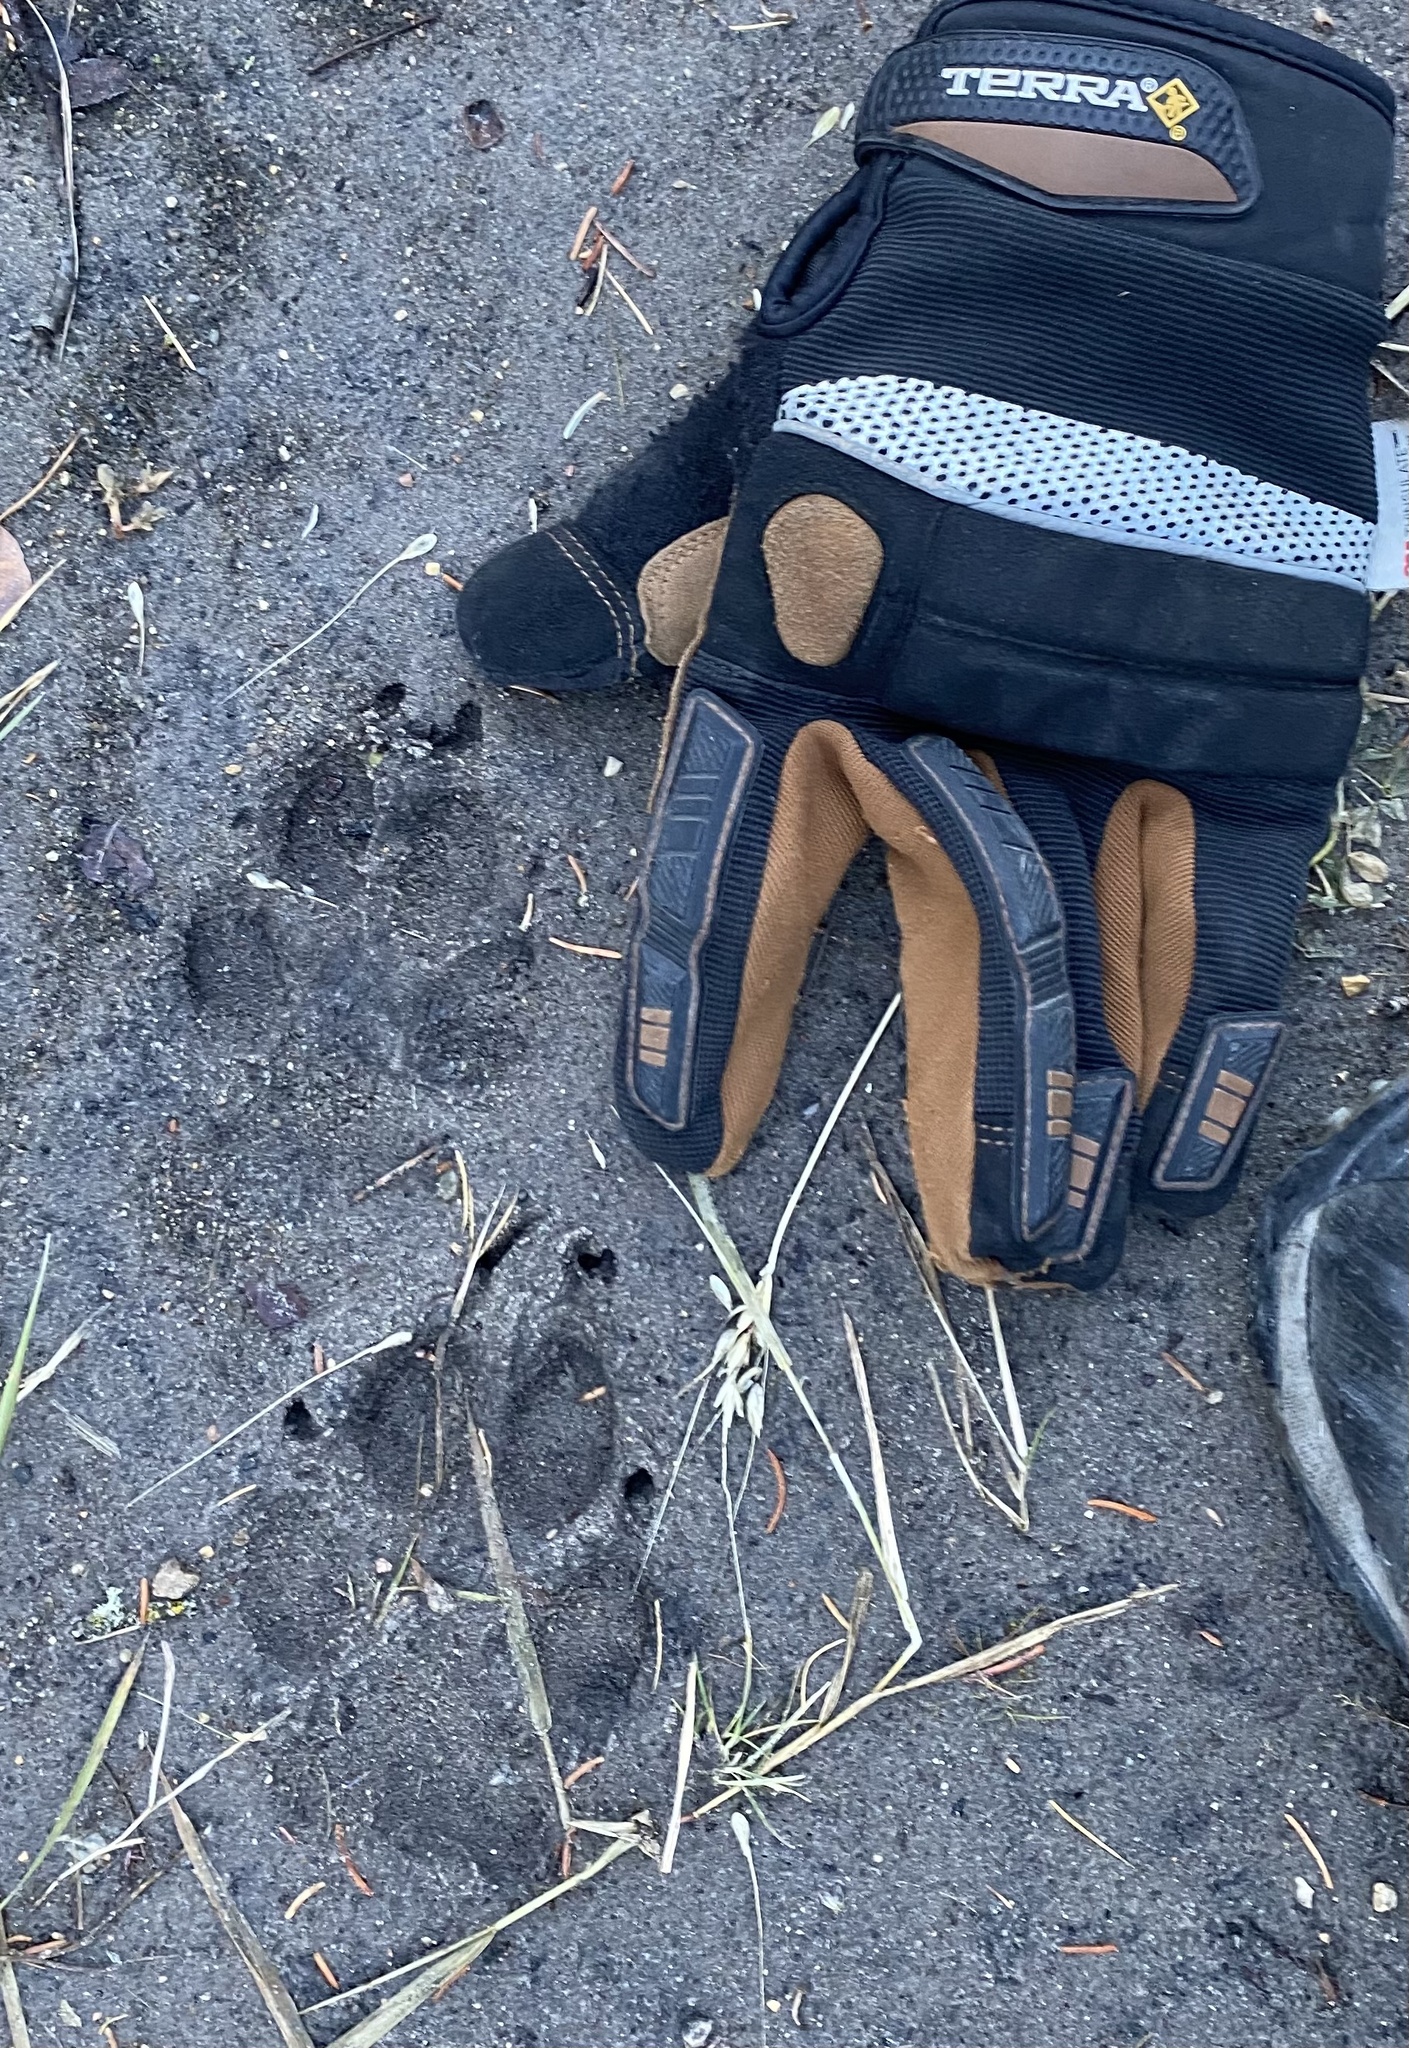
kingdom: Animalia
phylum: Chordata
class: Mammalia
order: Carnivora
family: Canidae
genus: Canis
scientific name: Canis lupus
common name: Gray wolf
